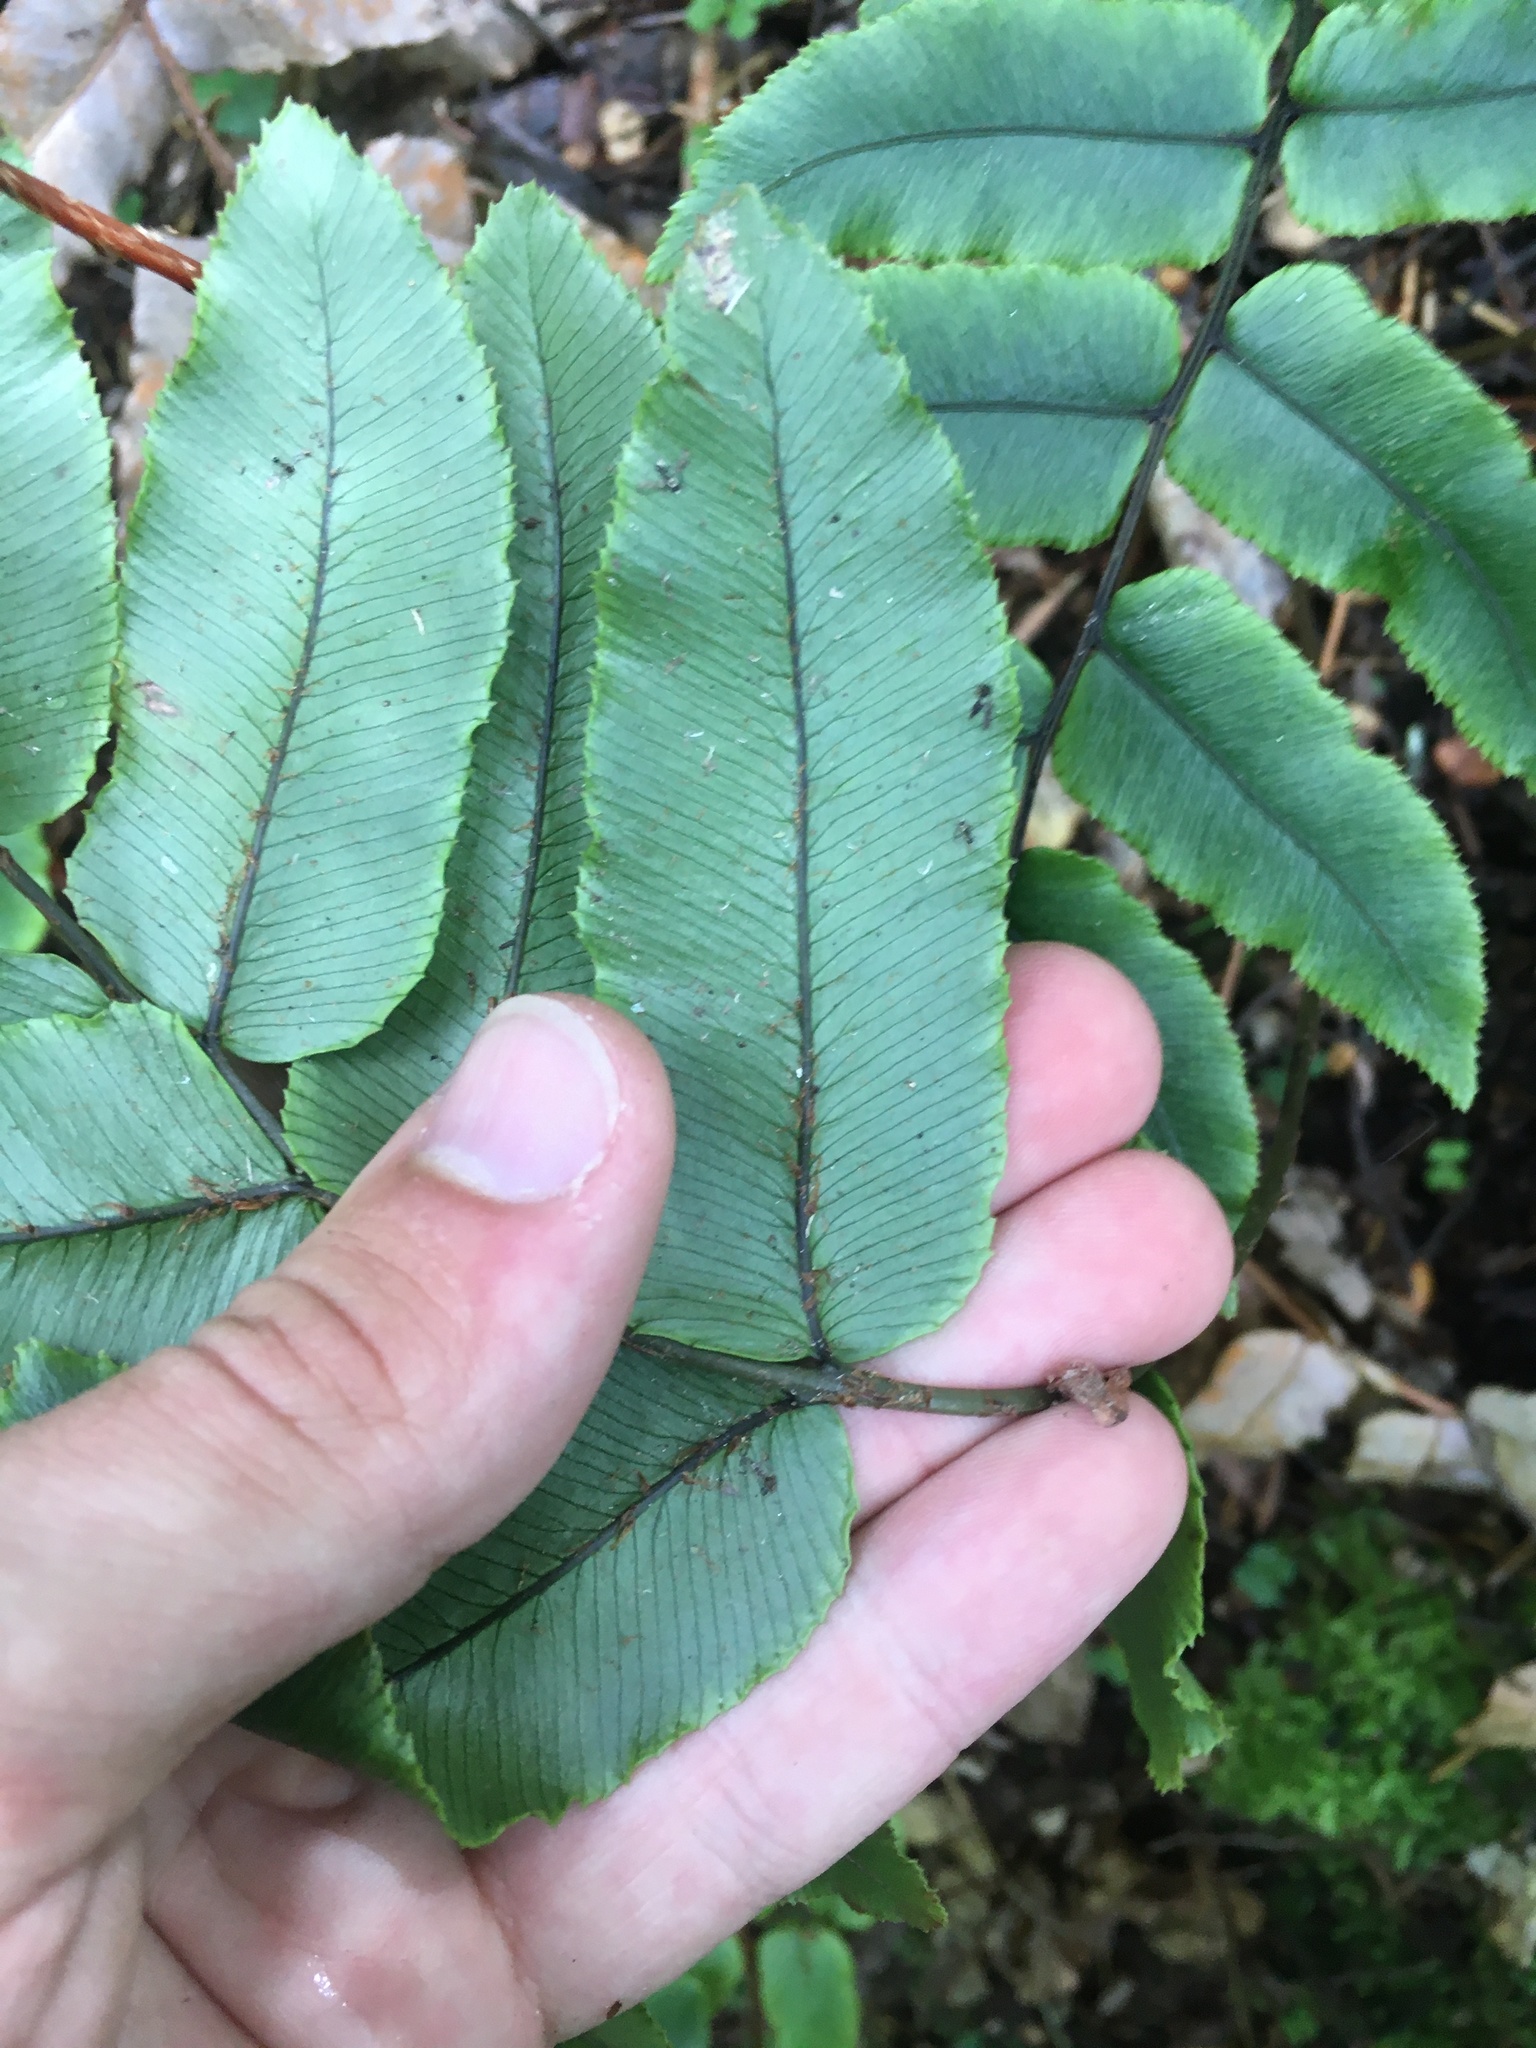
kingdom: Plantae
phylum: Tracheophyta
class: Polypodiopsida
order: Polypodiales
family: Blechnaceae
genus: Parablechnum
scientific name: Parablechnum procerum
